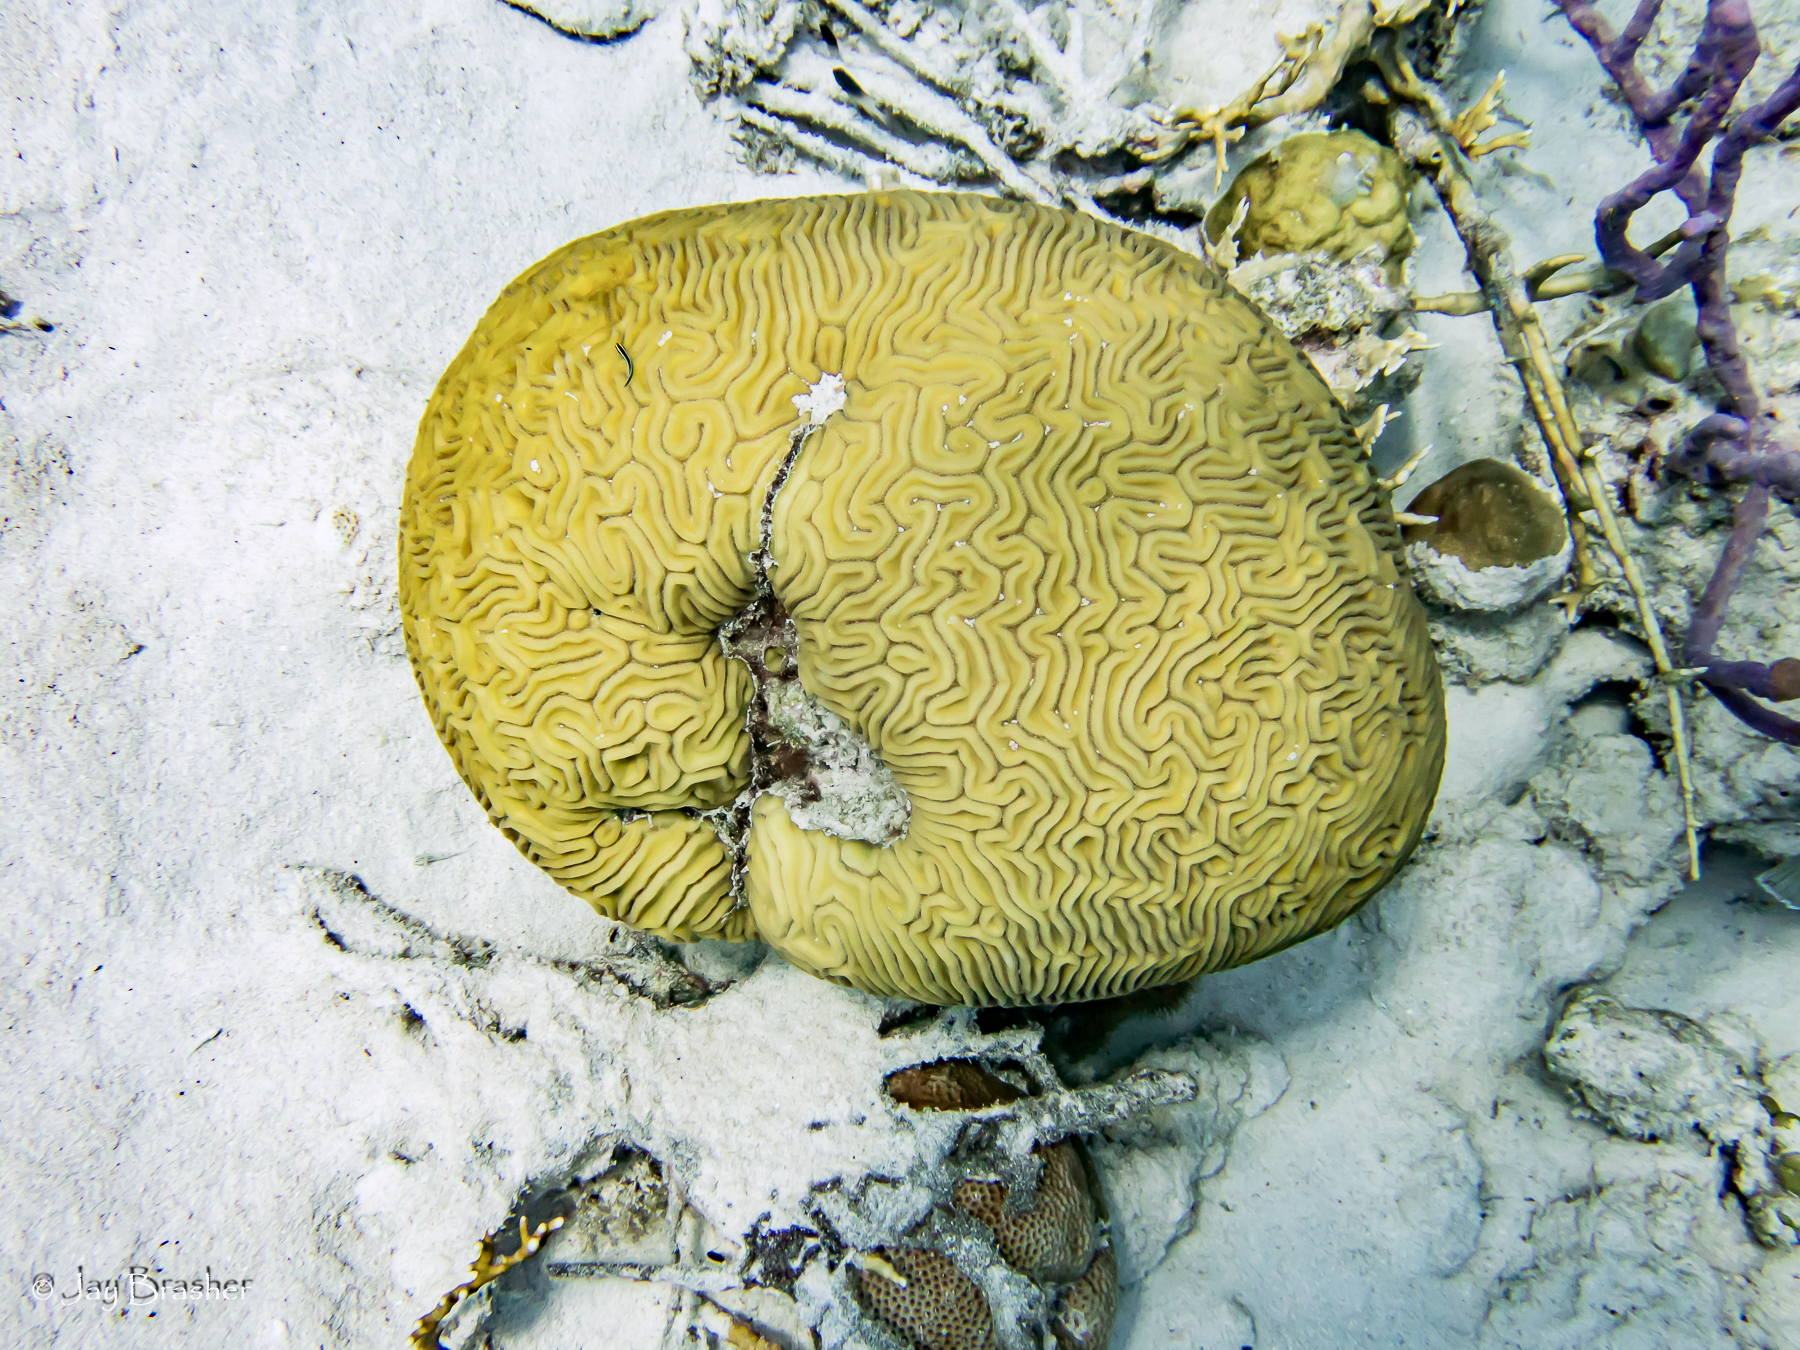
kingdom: Animalia
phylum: Cnidaria
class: Anthozoa
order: Scleractinia
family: Faviidae
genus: Diploria
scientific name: Diploria labyrinthiformis
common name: Grooved brain coral
